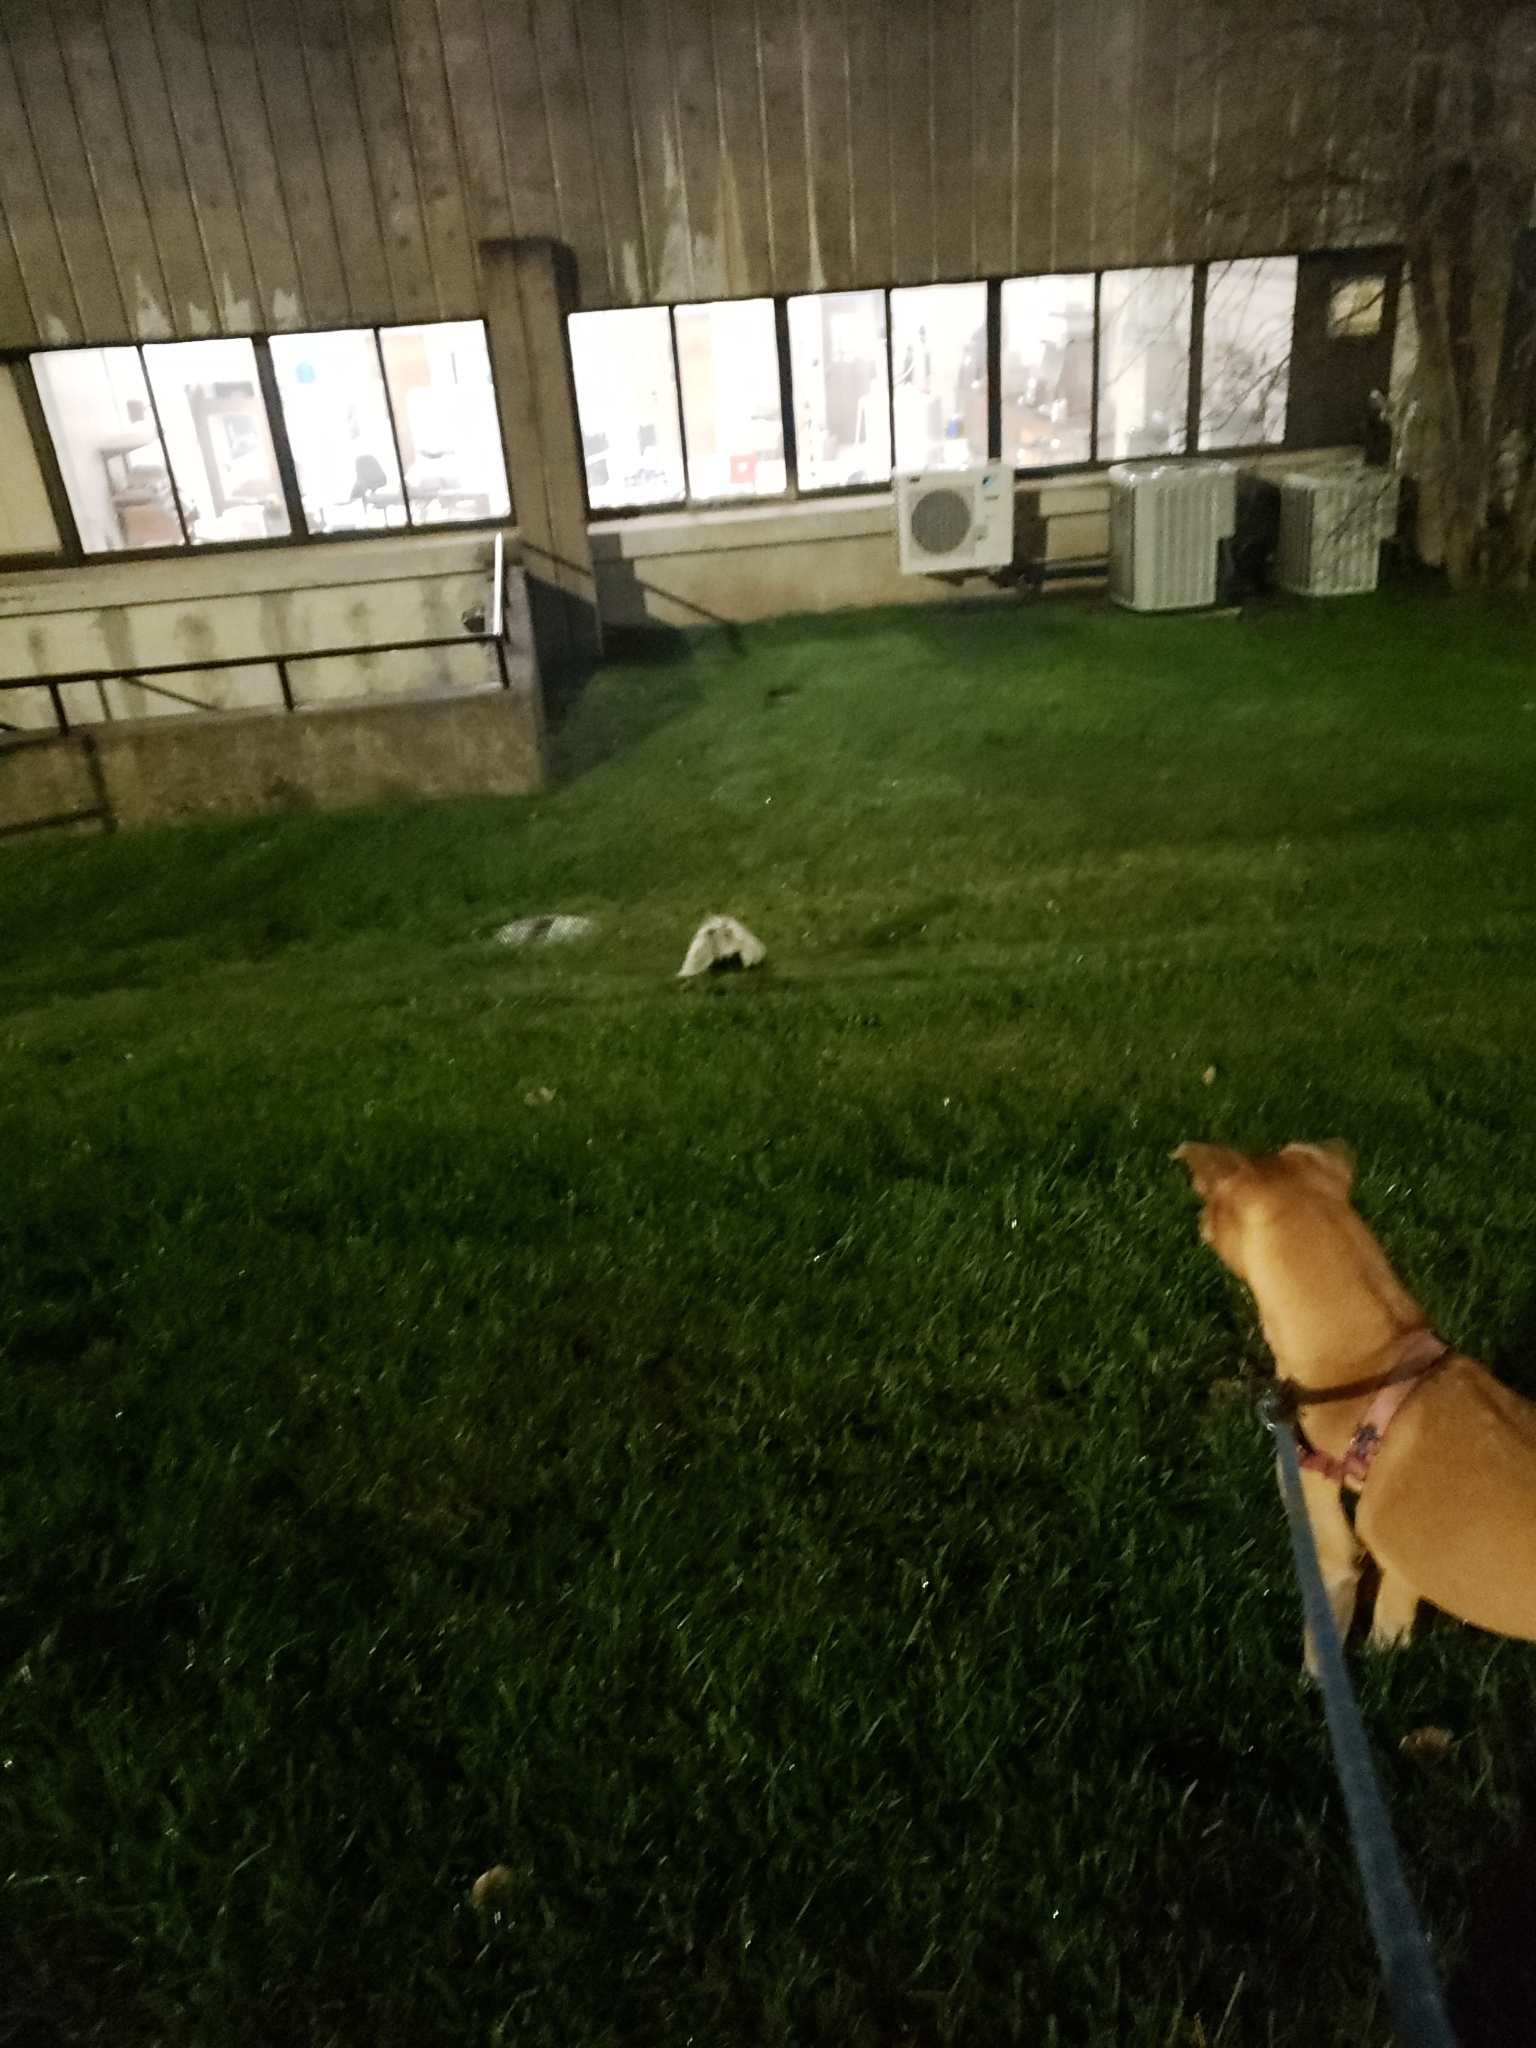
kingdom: Animalia
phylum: Chordata
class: Mammalia
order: Carnivora
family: Mephitidae
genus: Mephitis
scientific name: Mephitis mephitis
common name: Striped skunk
